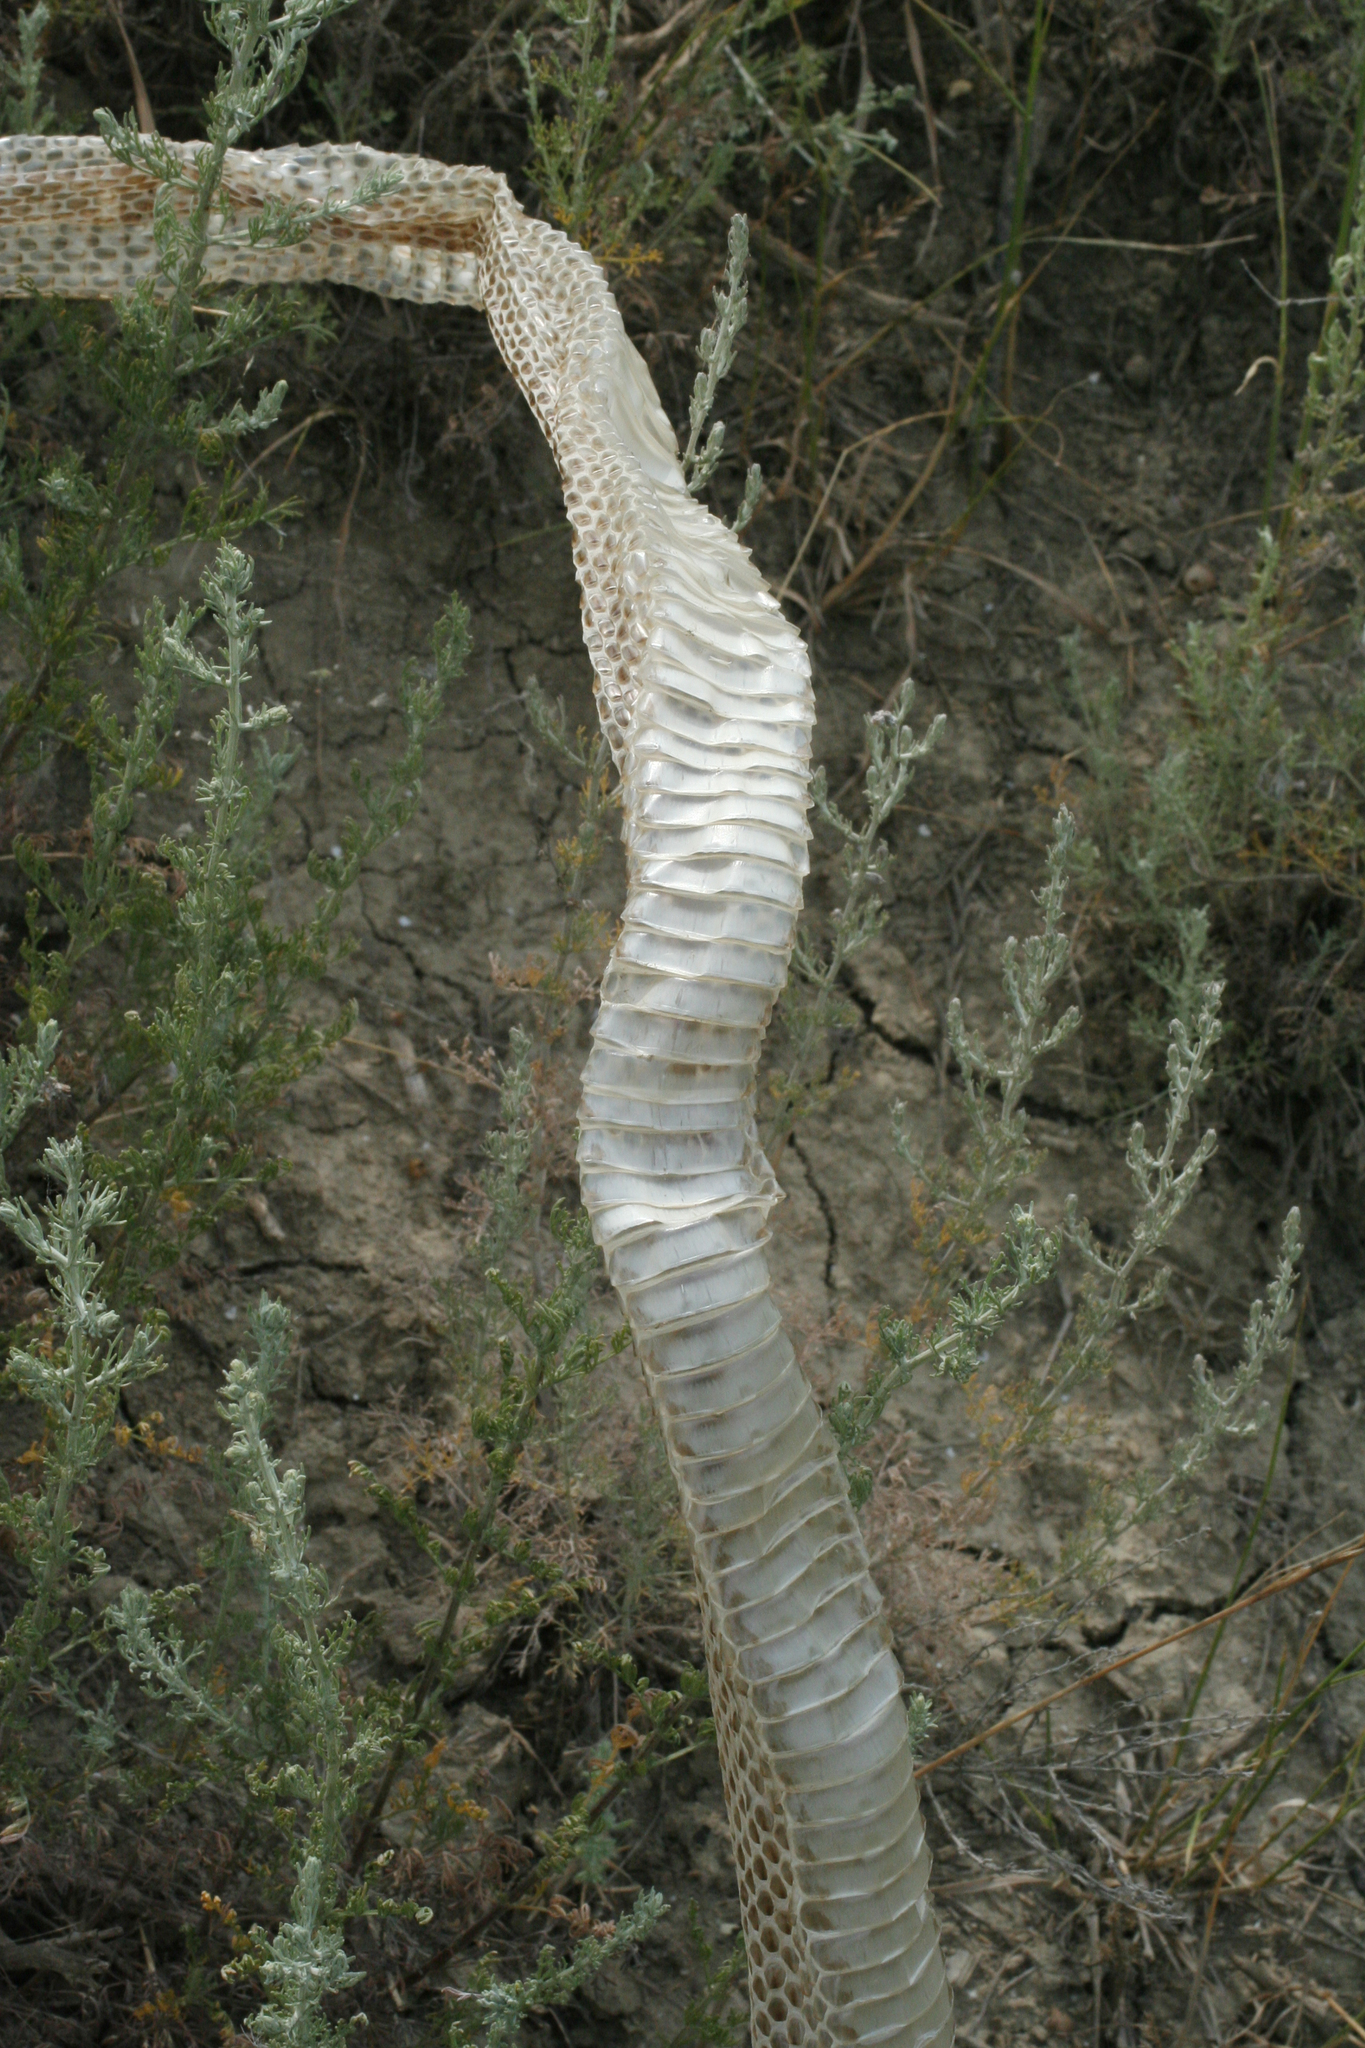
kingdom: Animalia
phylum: Chordata
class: Squamata
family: Colubridae
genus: Dolichophis
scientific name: Dolichophis schmidti
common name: Red-bellied racer
